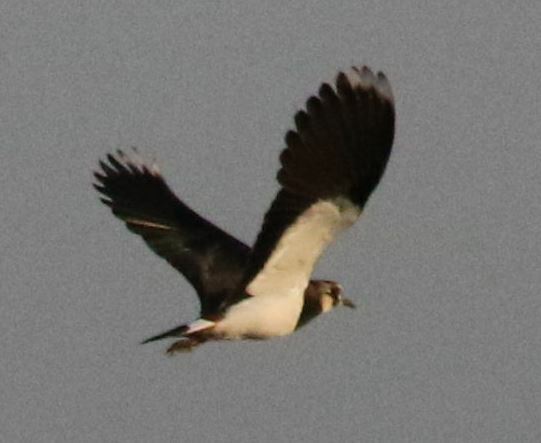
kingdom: Animalia
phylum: Chordata
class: Aves
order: Charadriiformes
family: Charadriidae
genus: Vanellus
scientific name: Vanellus vanellus
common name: Northern lapwing
